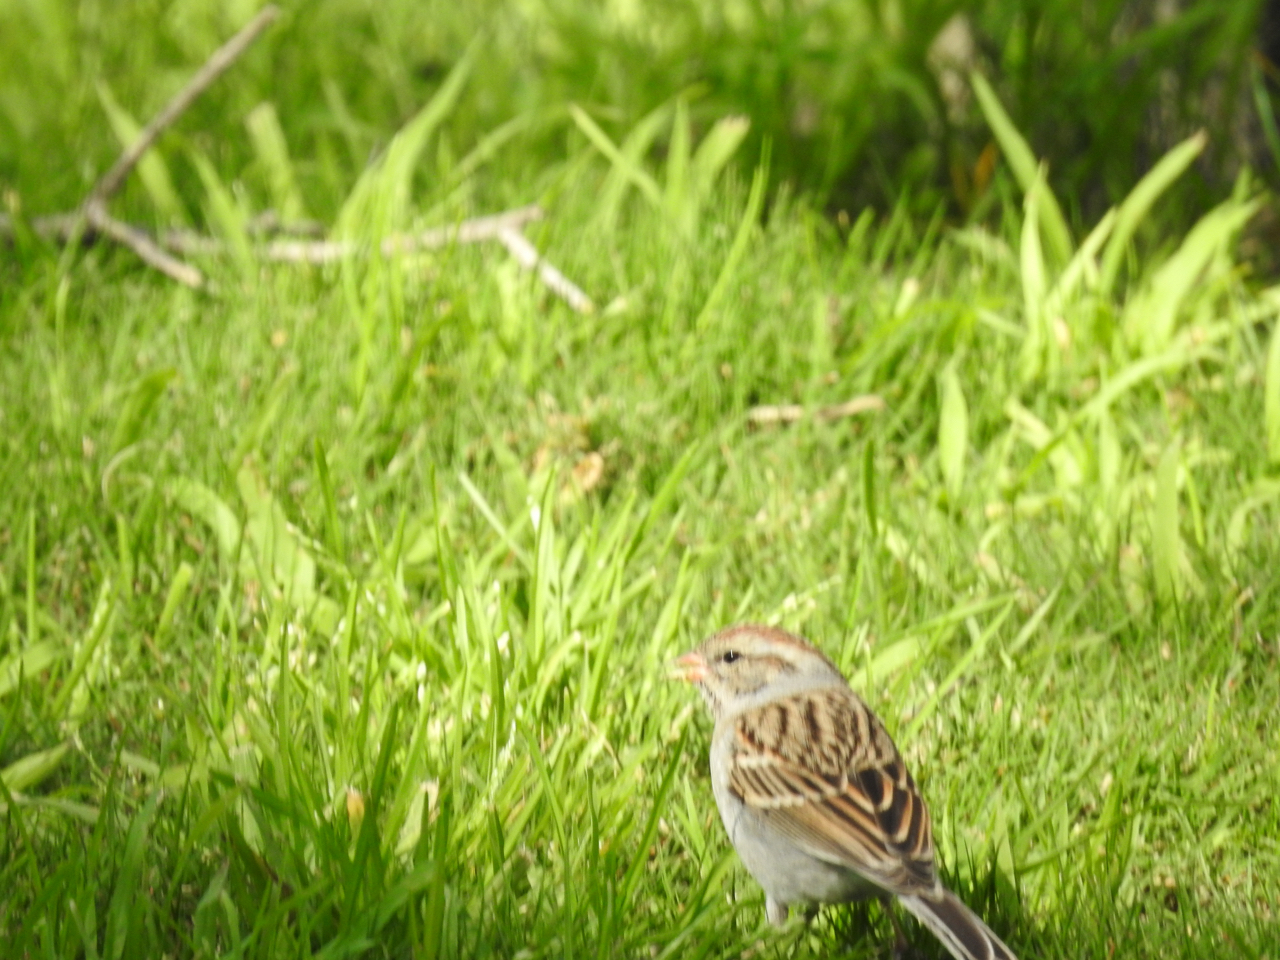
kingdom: Animalia
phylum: Chordata
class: Aves
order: Passeriformes
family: Passerellidae
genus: Spizella
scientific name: Spizella passerina
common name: Chipping sparrow
